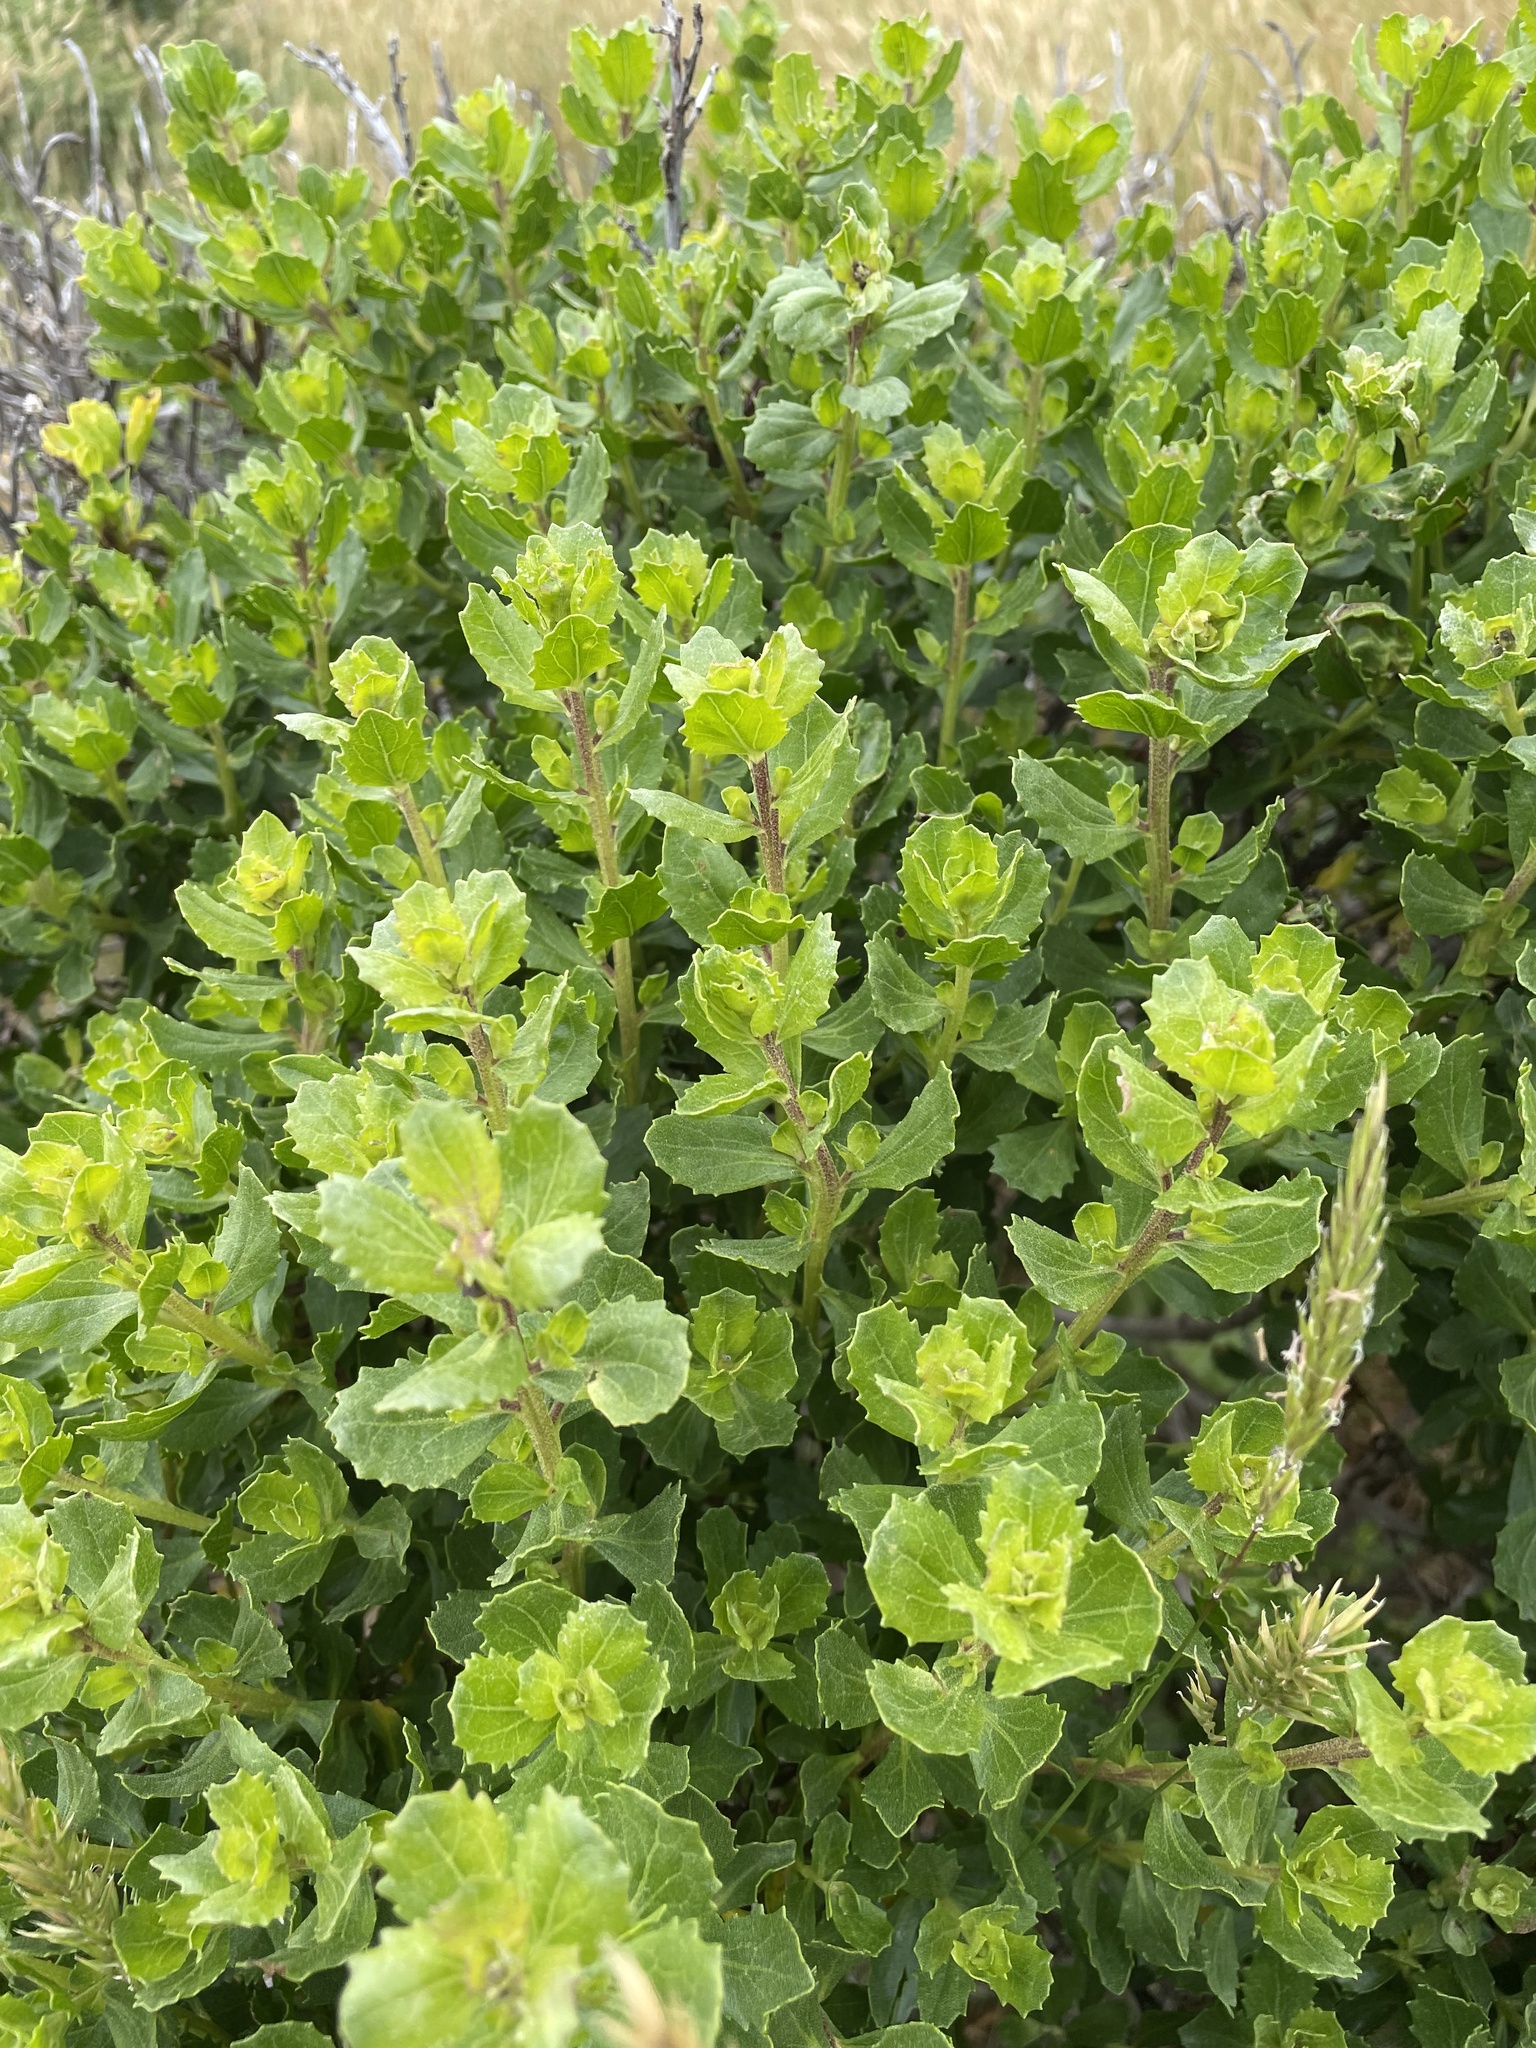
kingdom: Plantae
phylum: Tracheophyta
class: Magnoliopsida
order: Asterales
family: Asteraceae
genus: Baccharis
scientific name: Baccharis pilularis
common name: Coyotebrush
